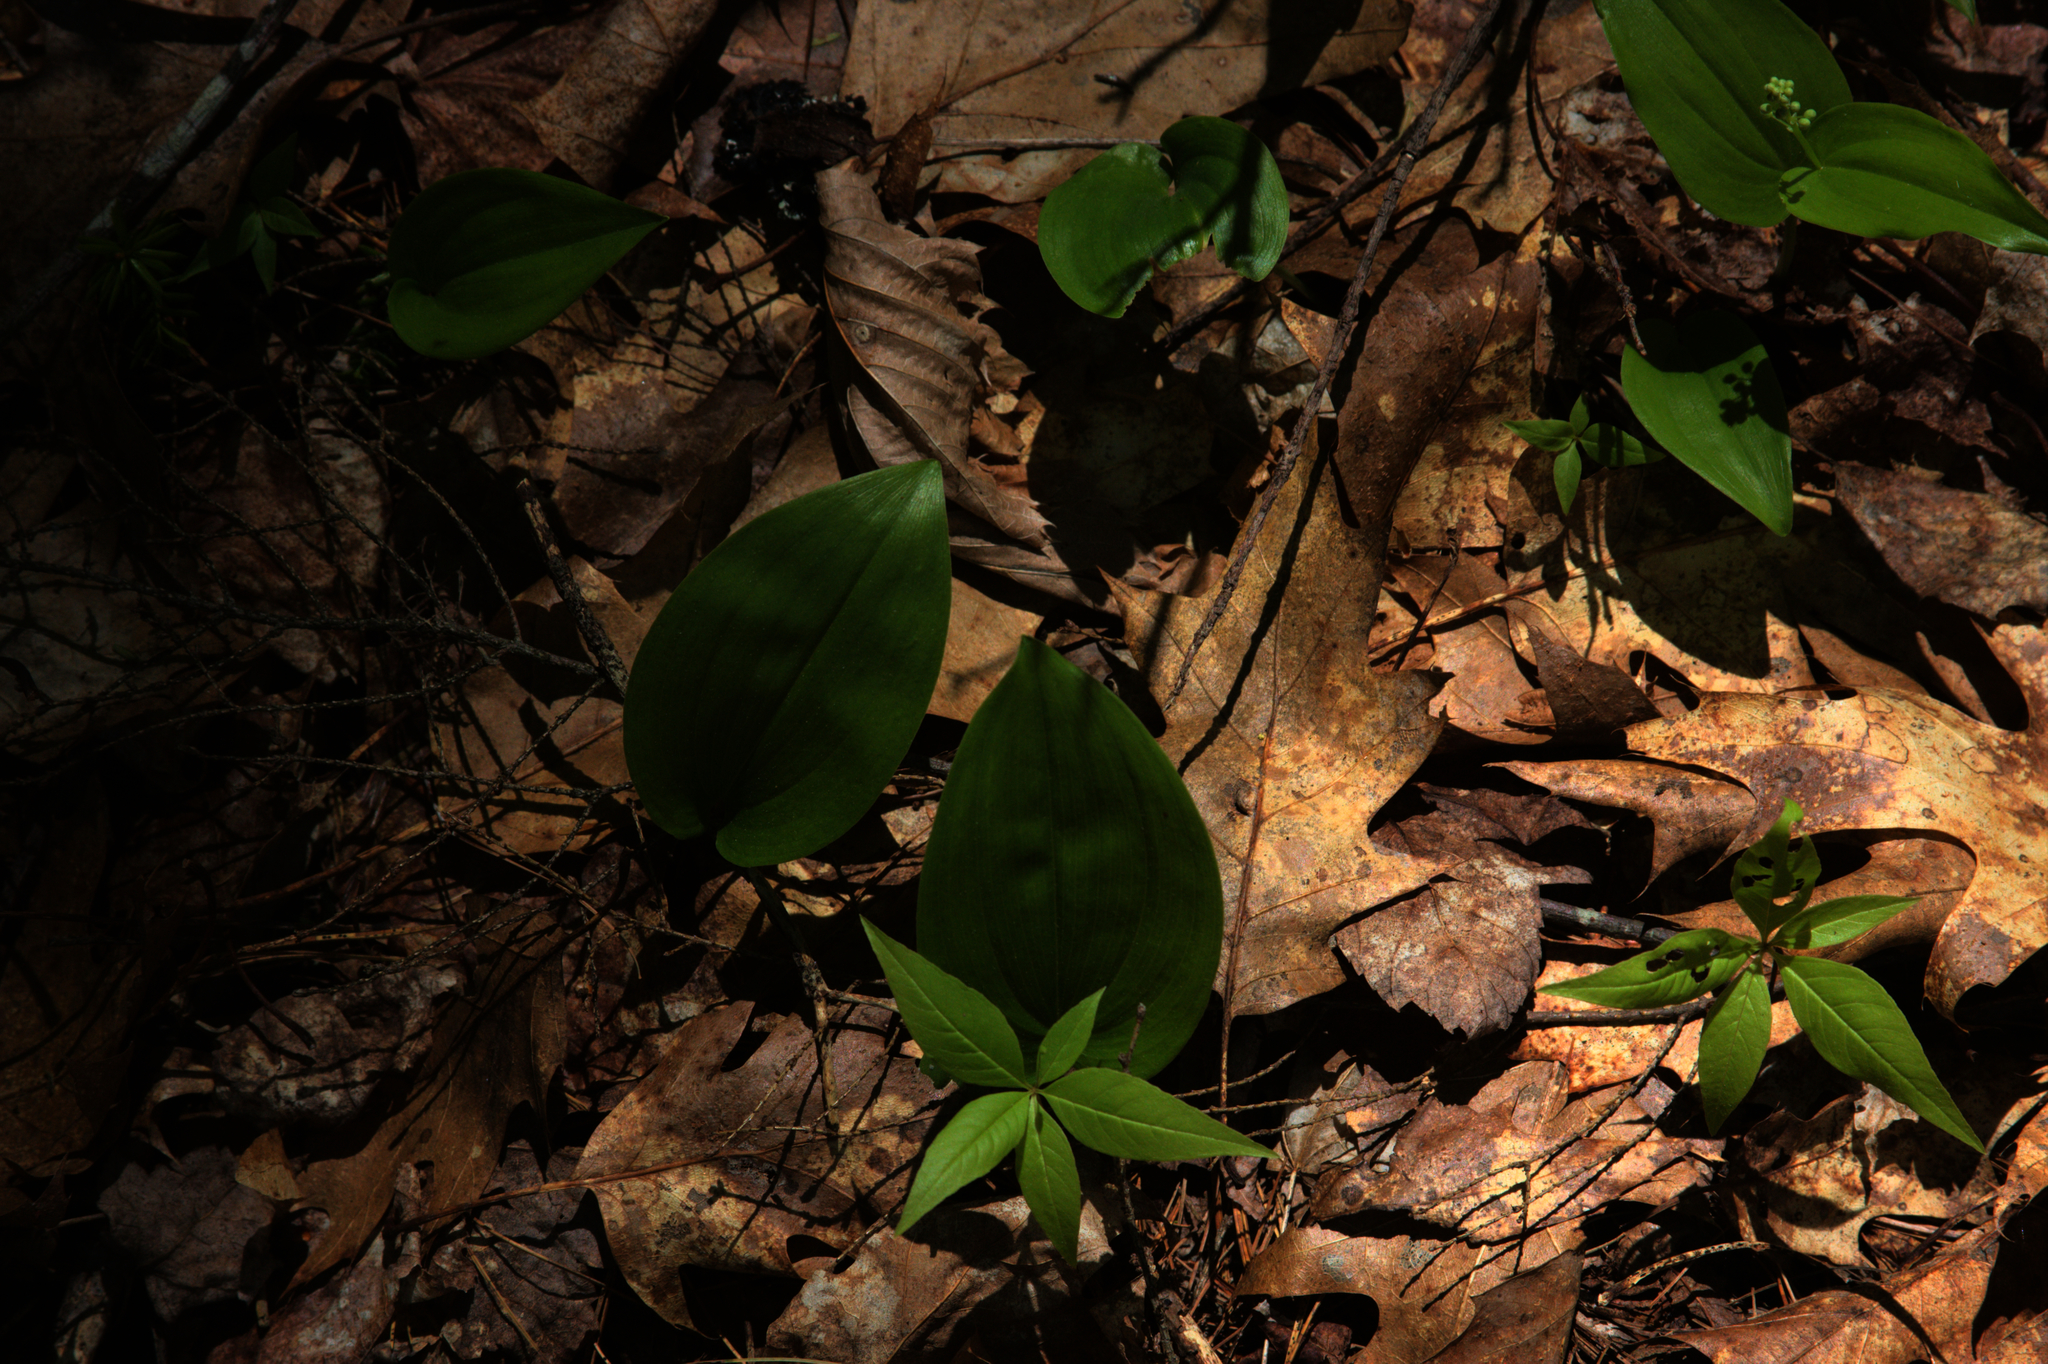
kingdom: Plantae
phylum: Tracheophyta
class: Magnoliopsida
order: Ericales
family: Primulaceae
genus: Lysimachia
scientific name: Lysimachia borealis
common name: American starflower
